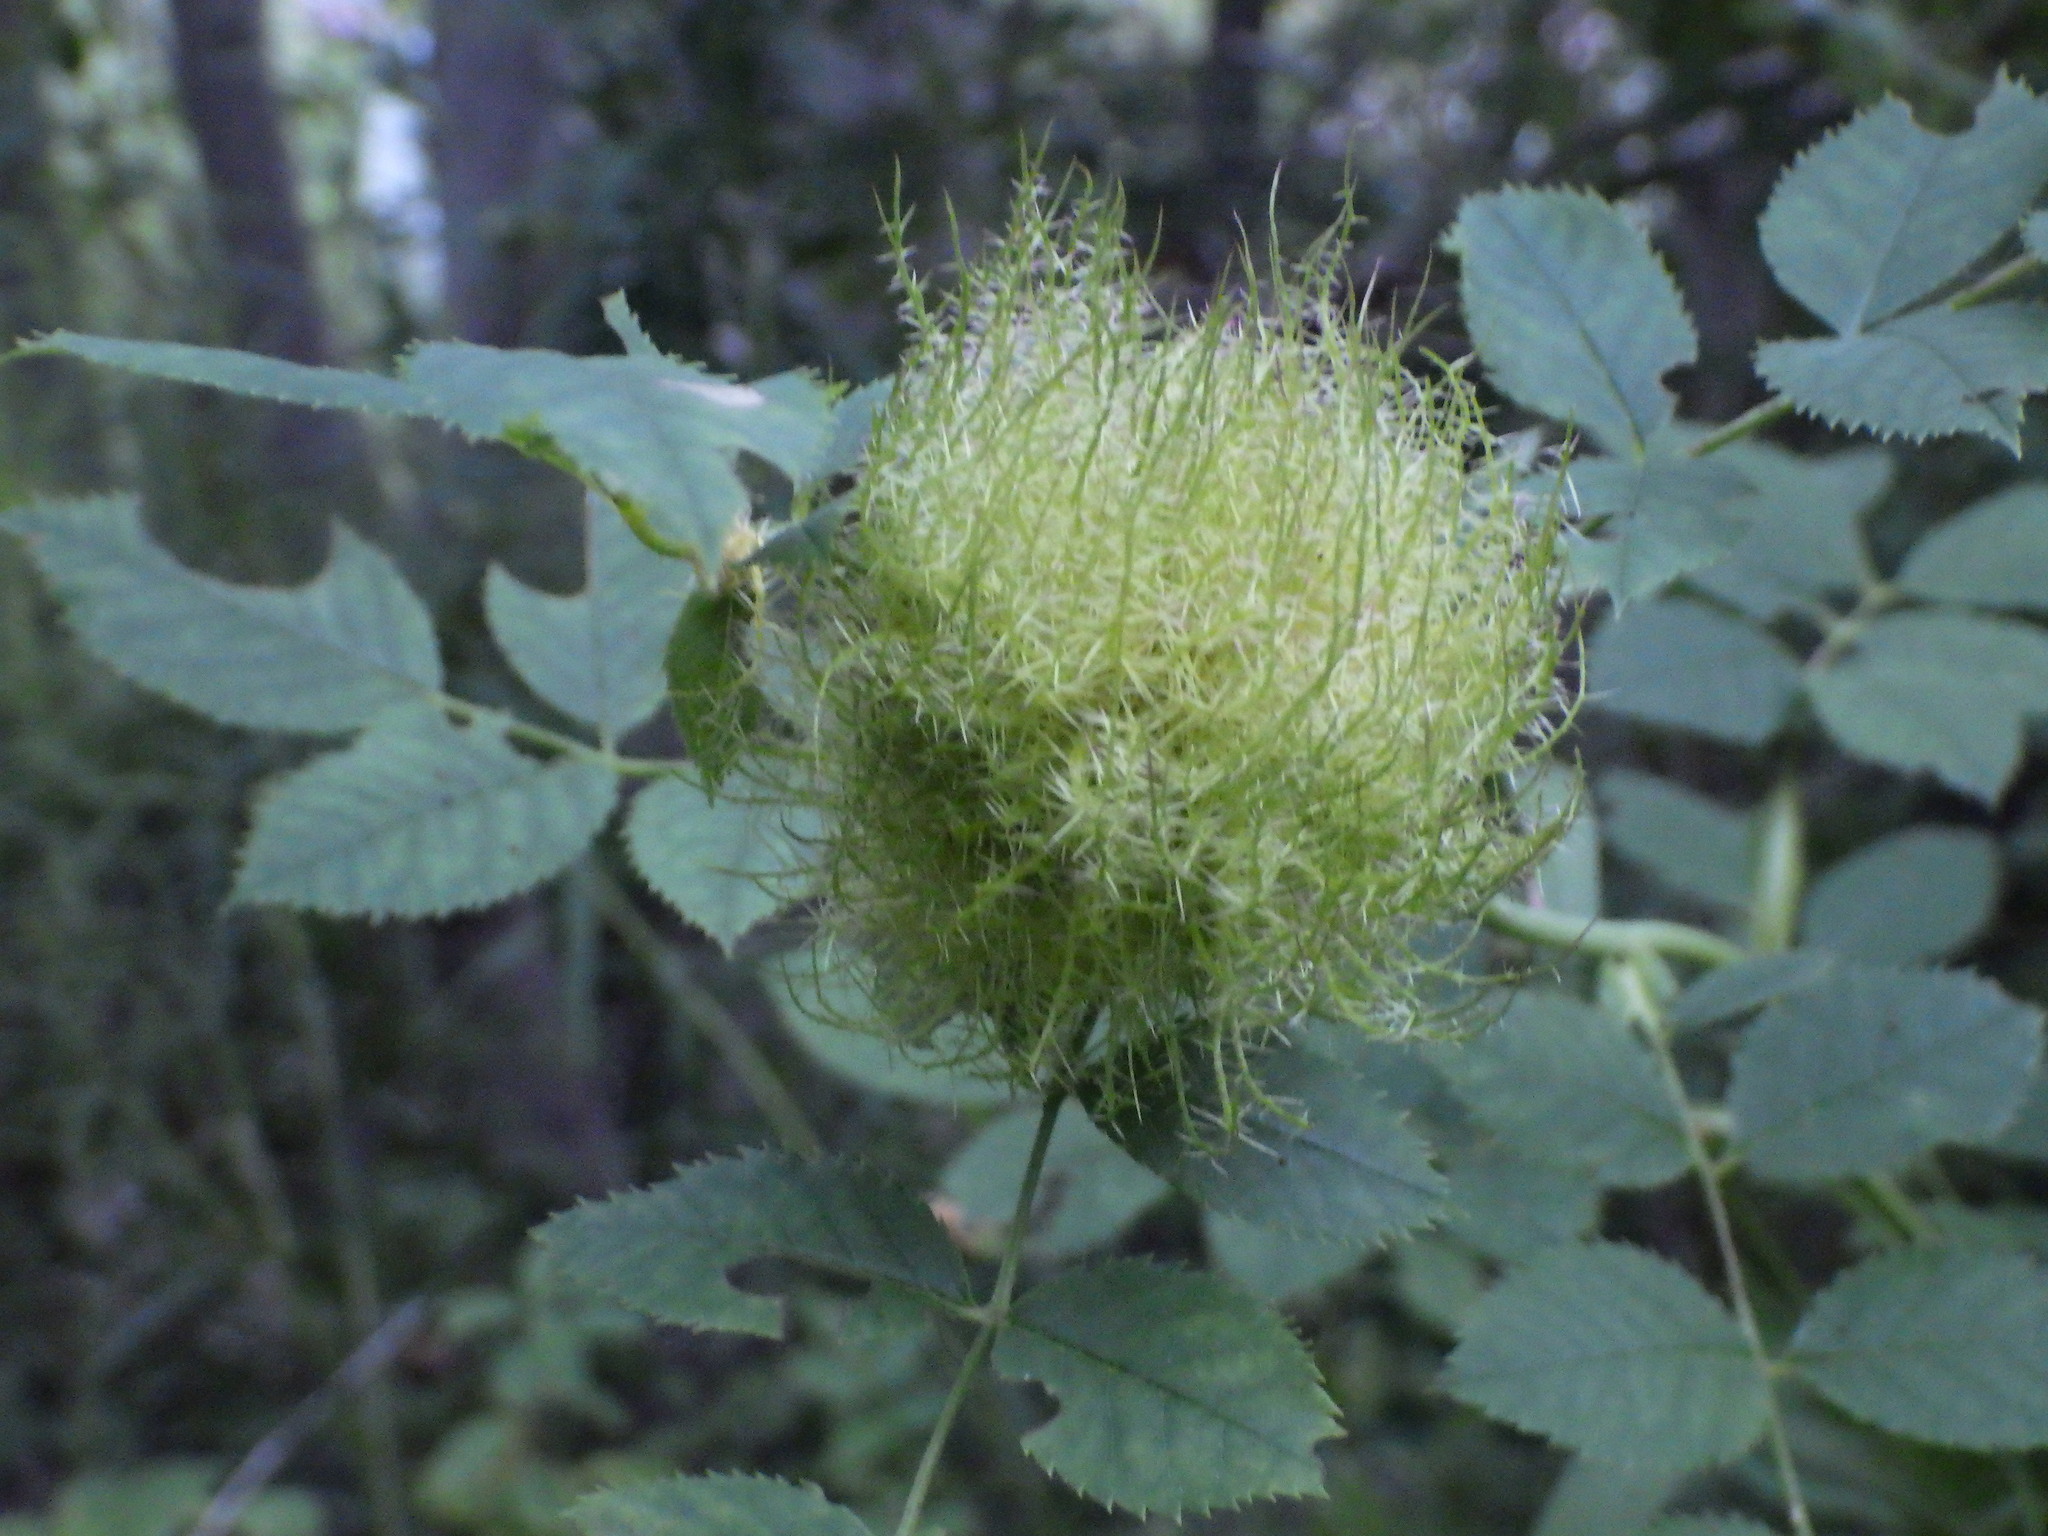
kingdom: Animalia
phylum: Arthropoda
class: Insecta
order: Hymenoptera
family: Cynipidae
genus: Diplolepis
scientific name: Diplolepis rosae
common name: Bedeguar gall
